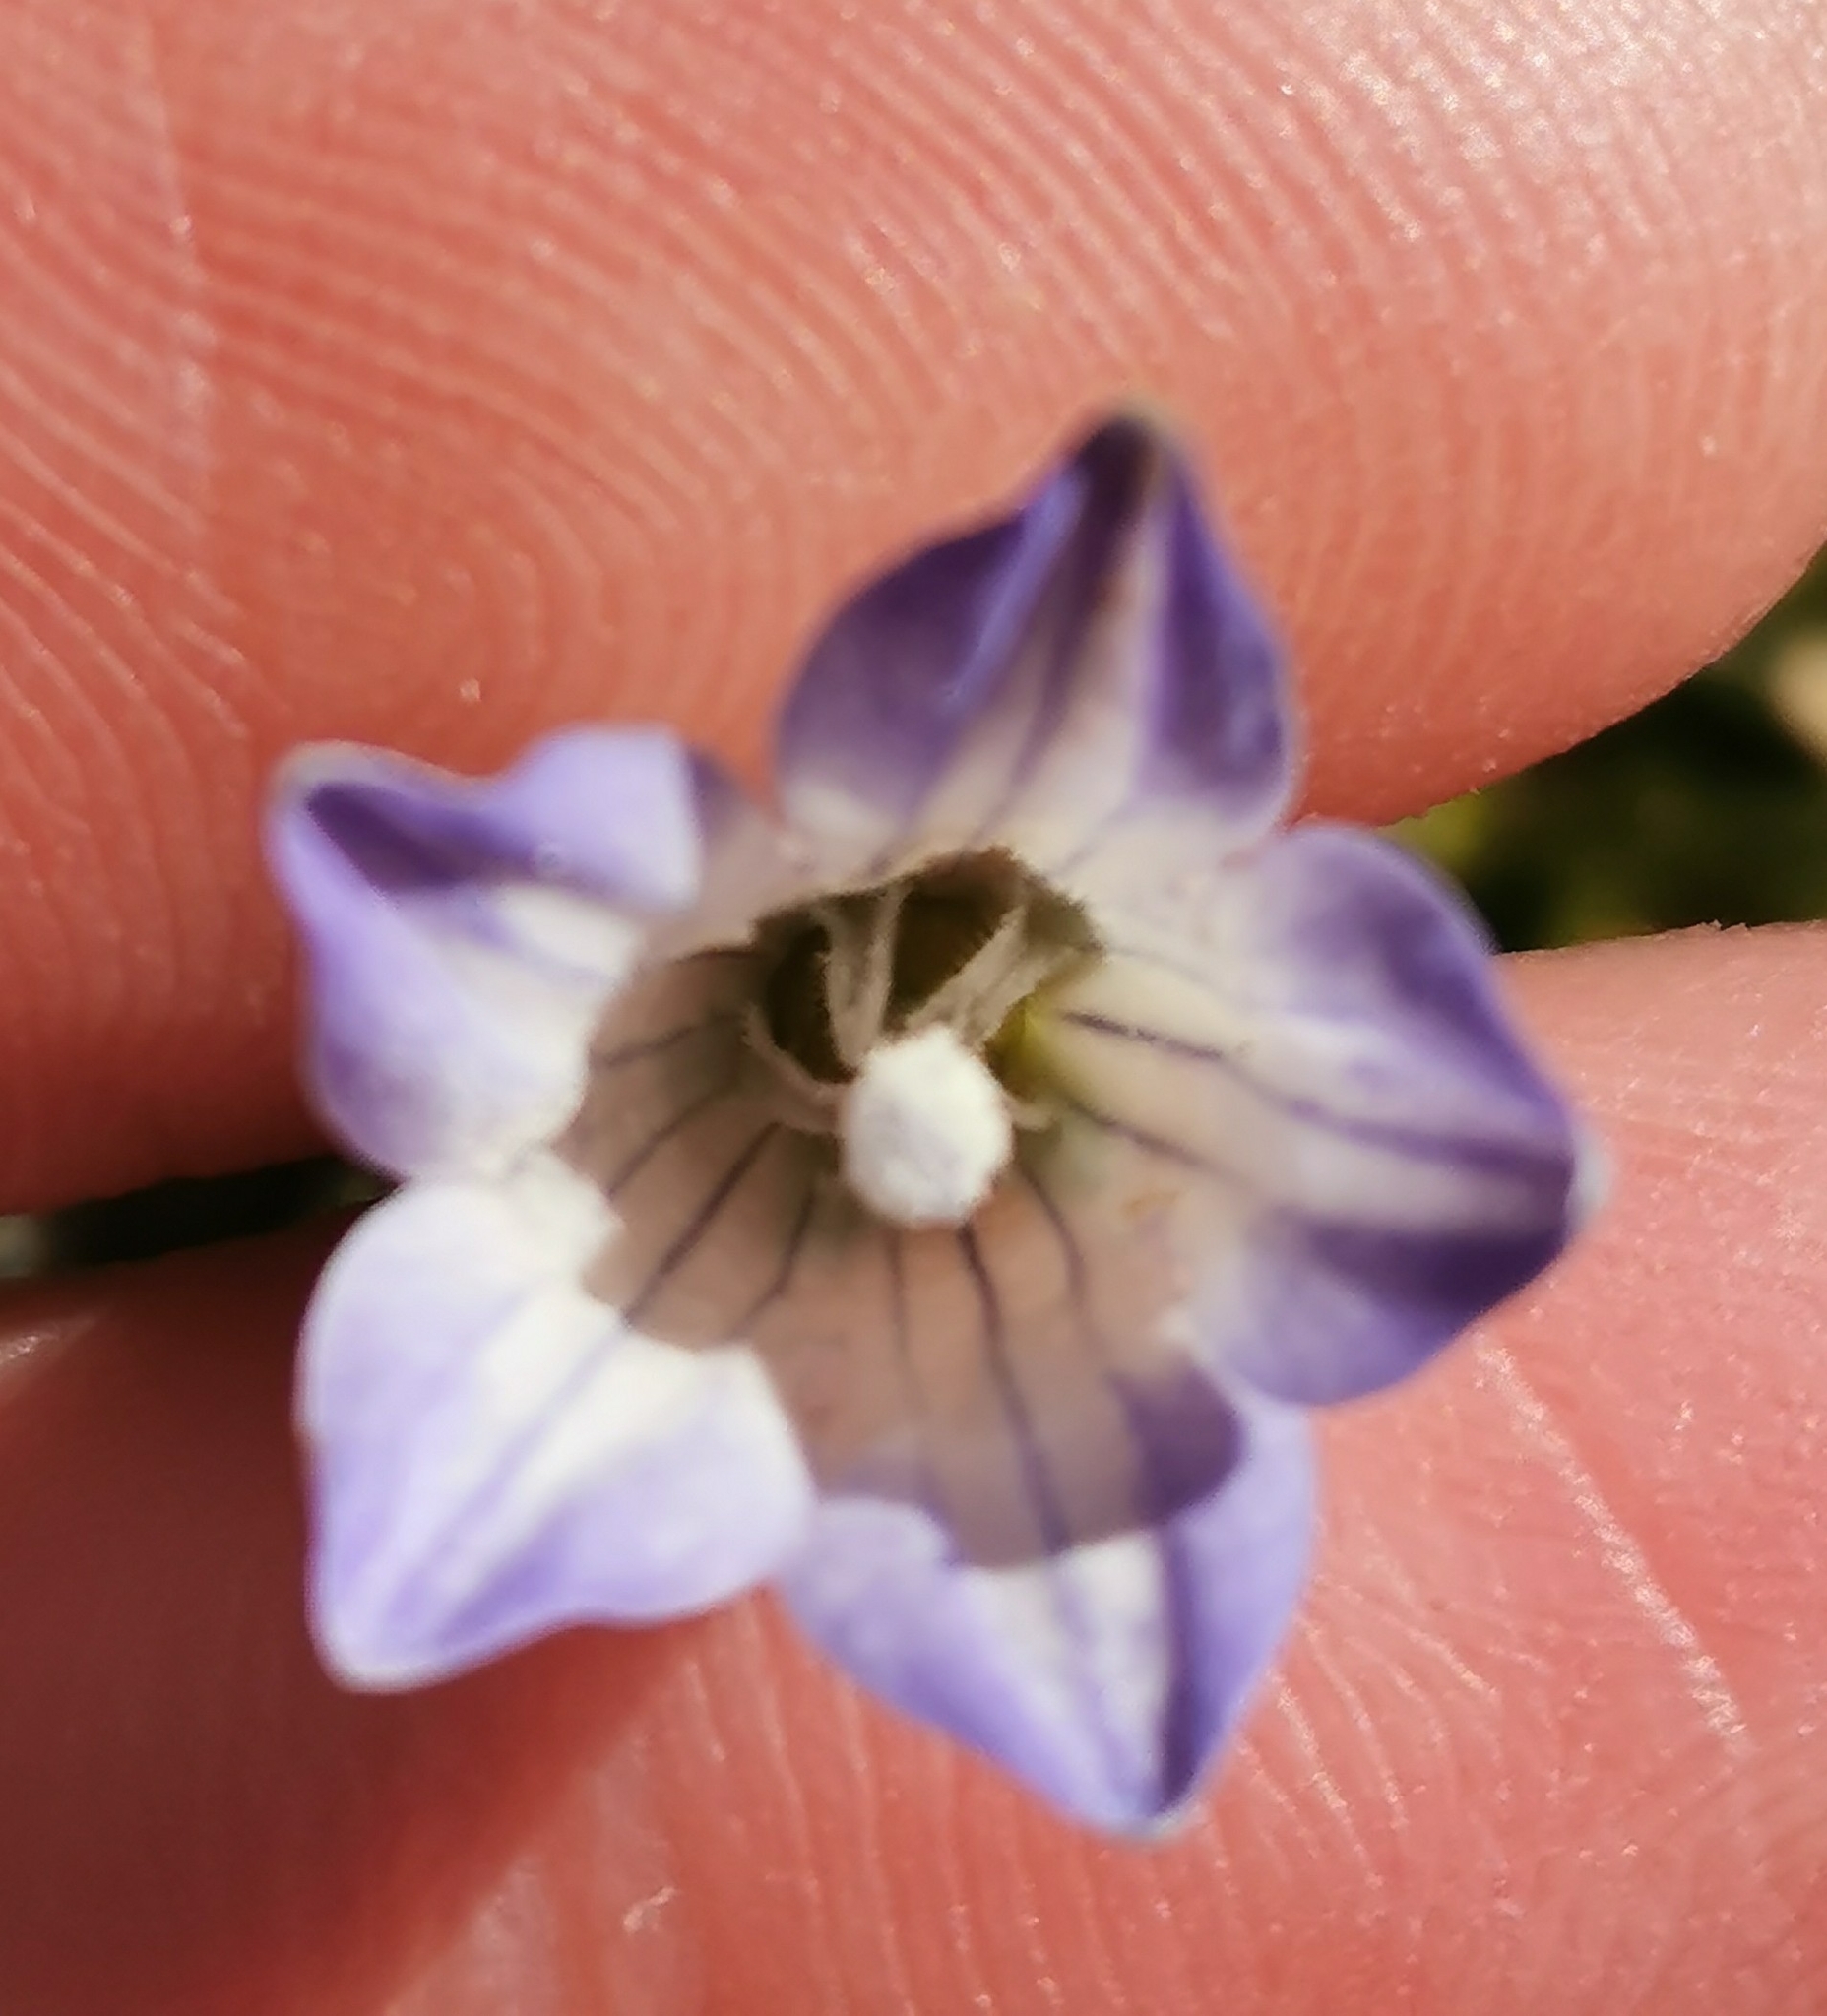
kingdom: Plantae
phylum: Tracheophyta
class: Magnoliopsida
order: Asterales
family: Campanulaceae
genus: Wahlenbergia
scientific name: Wahlenbergia pygmaea
